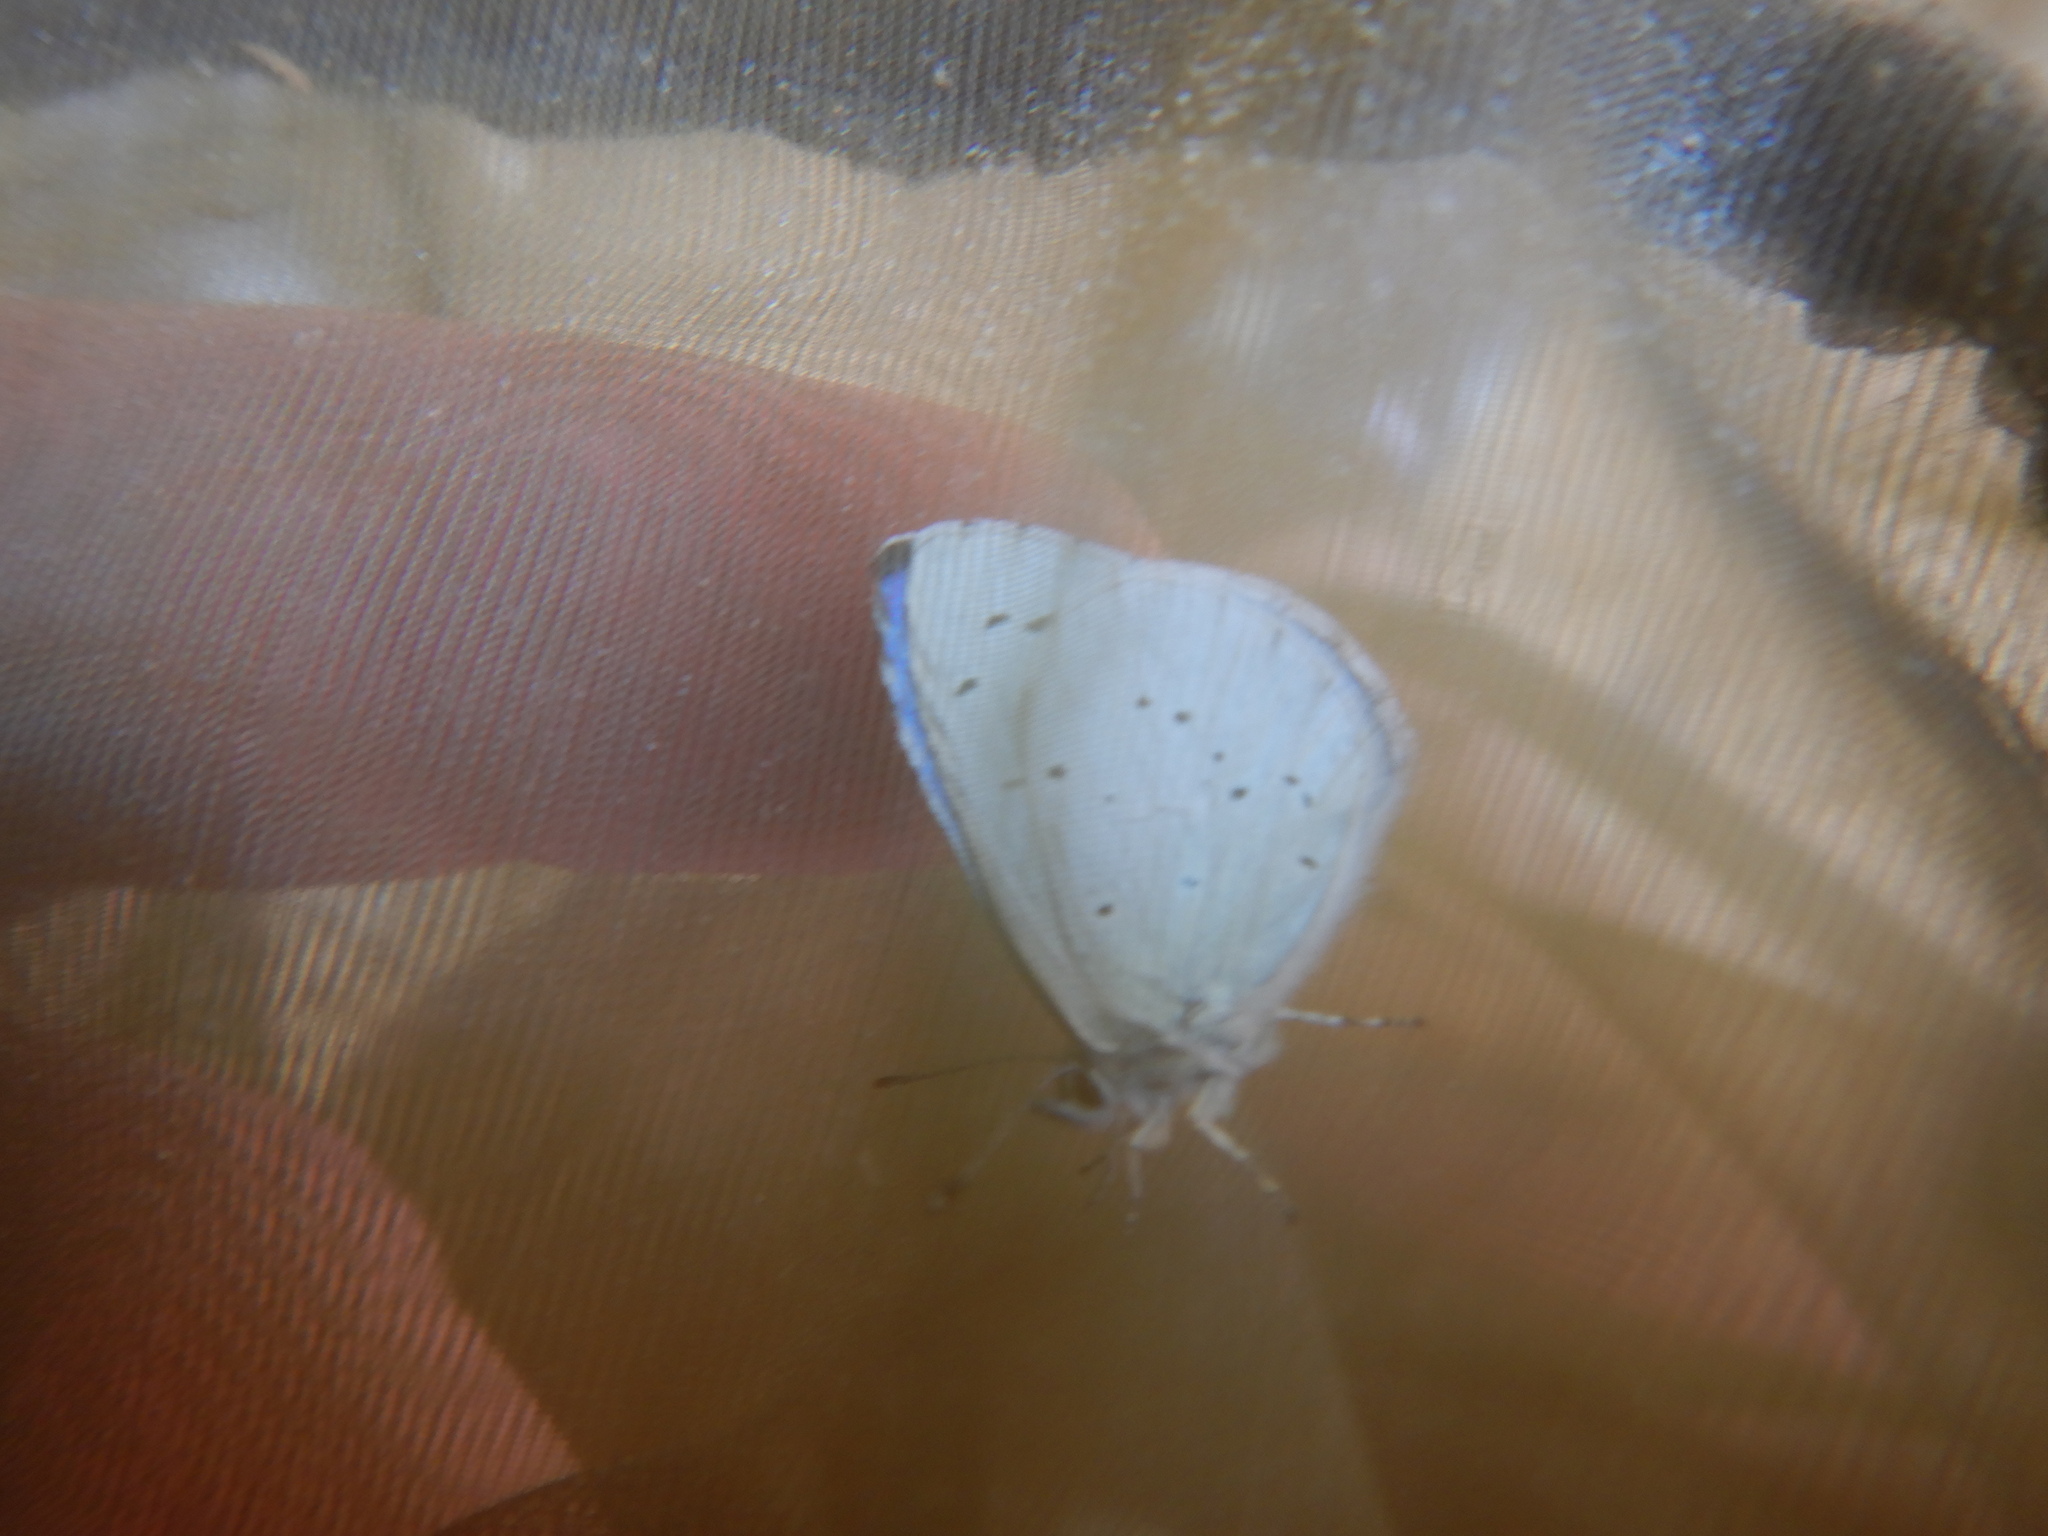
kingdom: Animalia
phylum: Arthropoda
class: Insecta
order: Lepidoptera
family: Lycaenidae
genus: Celastrina
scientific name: Celastrina argiolus
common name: Holly blue
